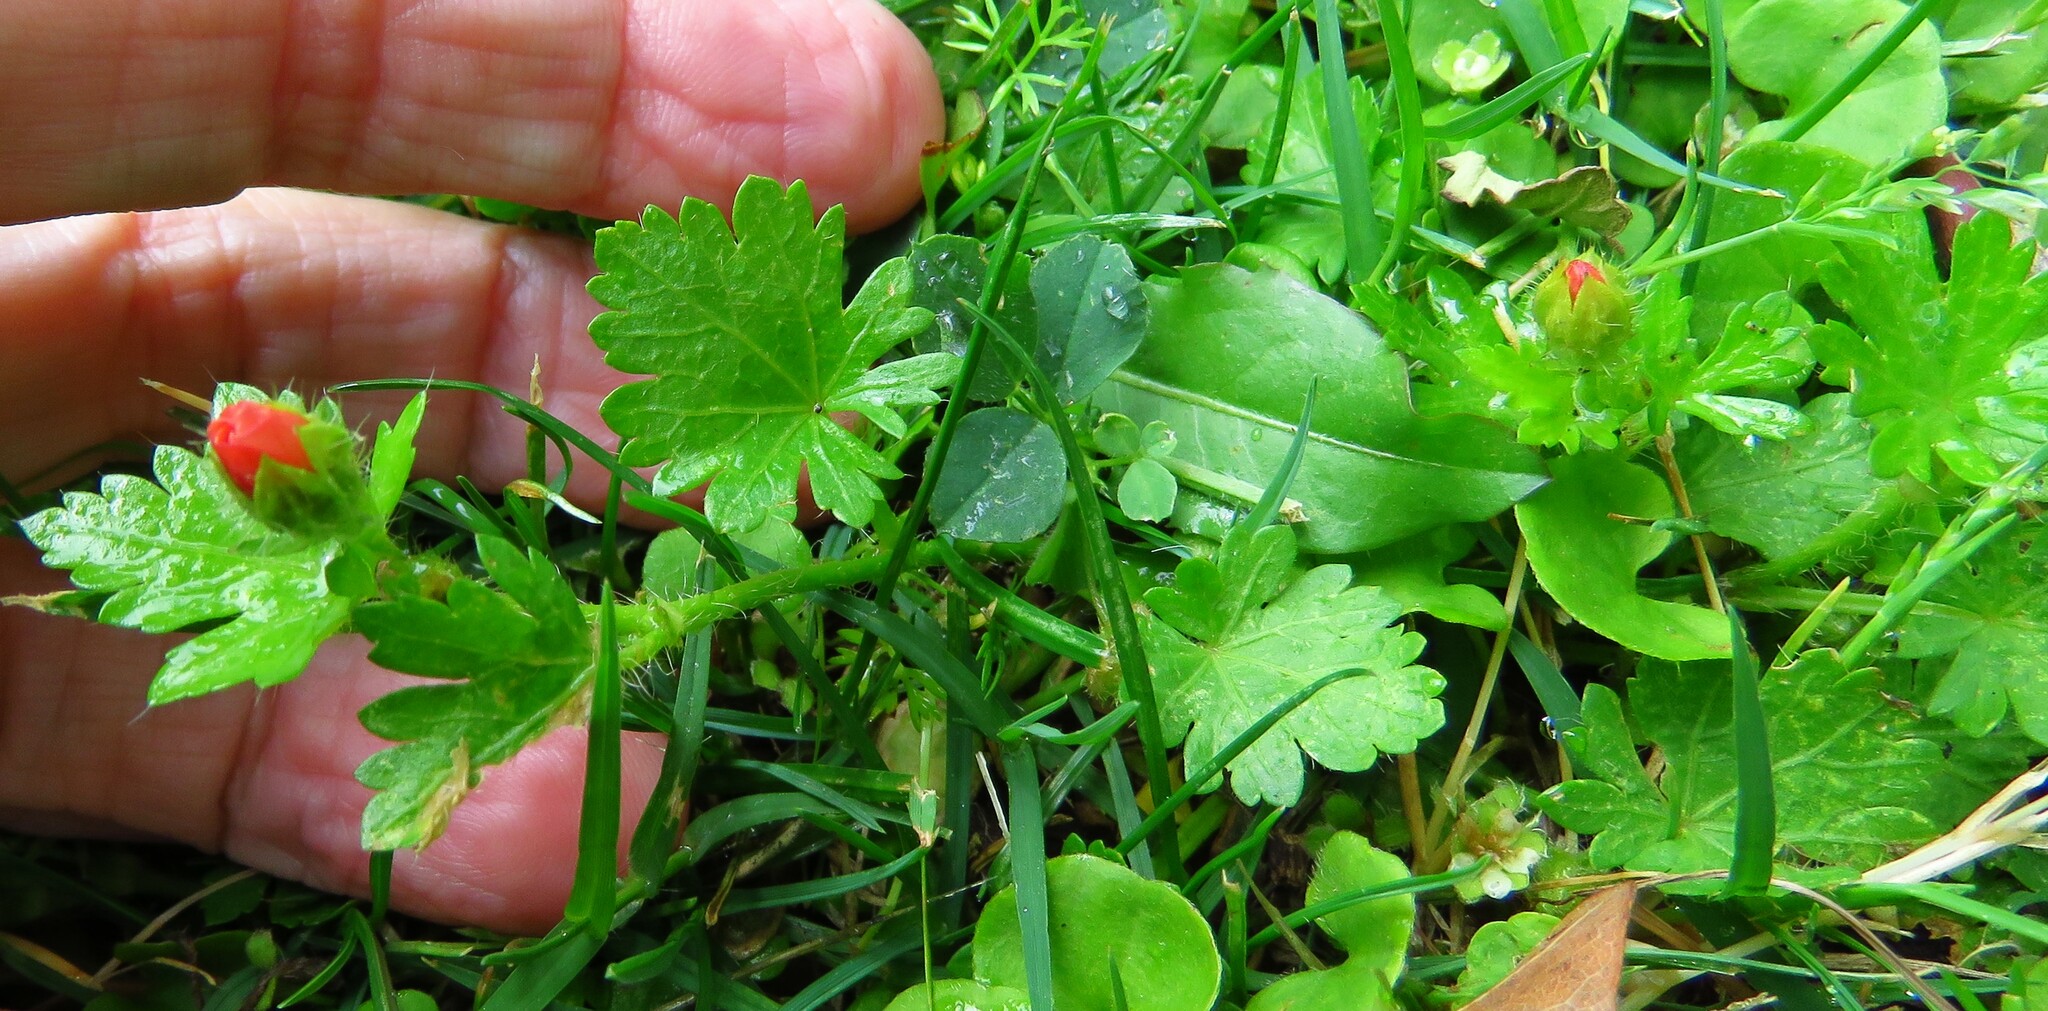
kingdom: Plantae
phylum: Tracheophyta
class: Magnoliopsida
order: Malvales
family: Malvaceae
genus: Modiola
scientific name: Modiola caroliniana
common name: Carolina bristlemallow
